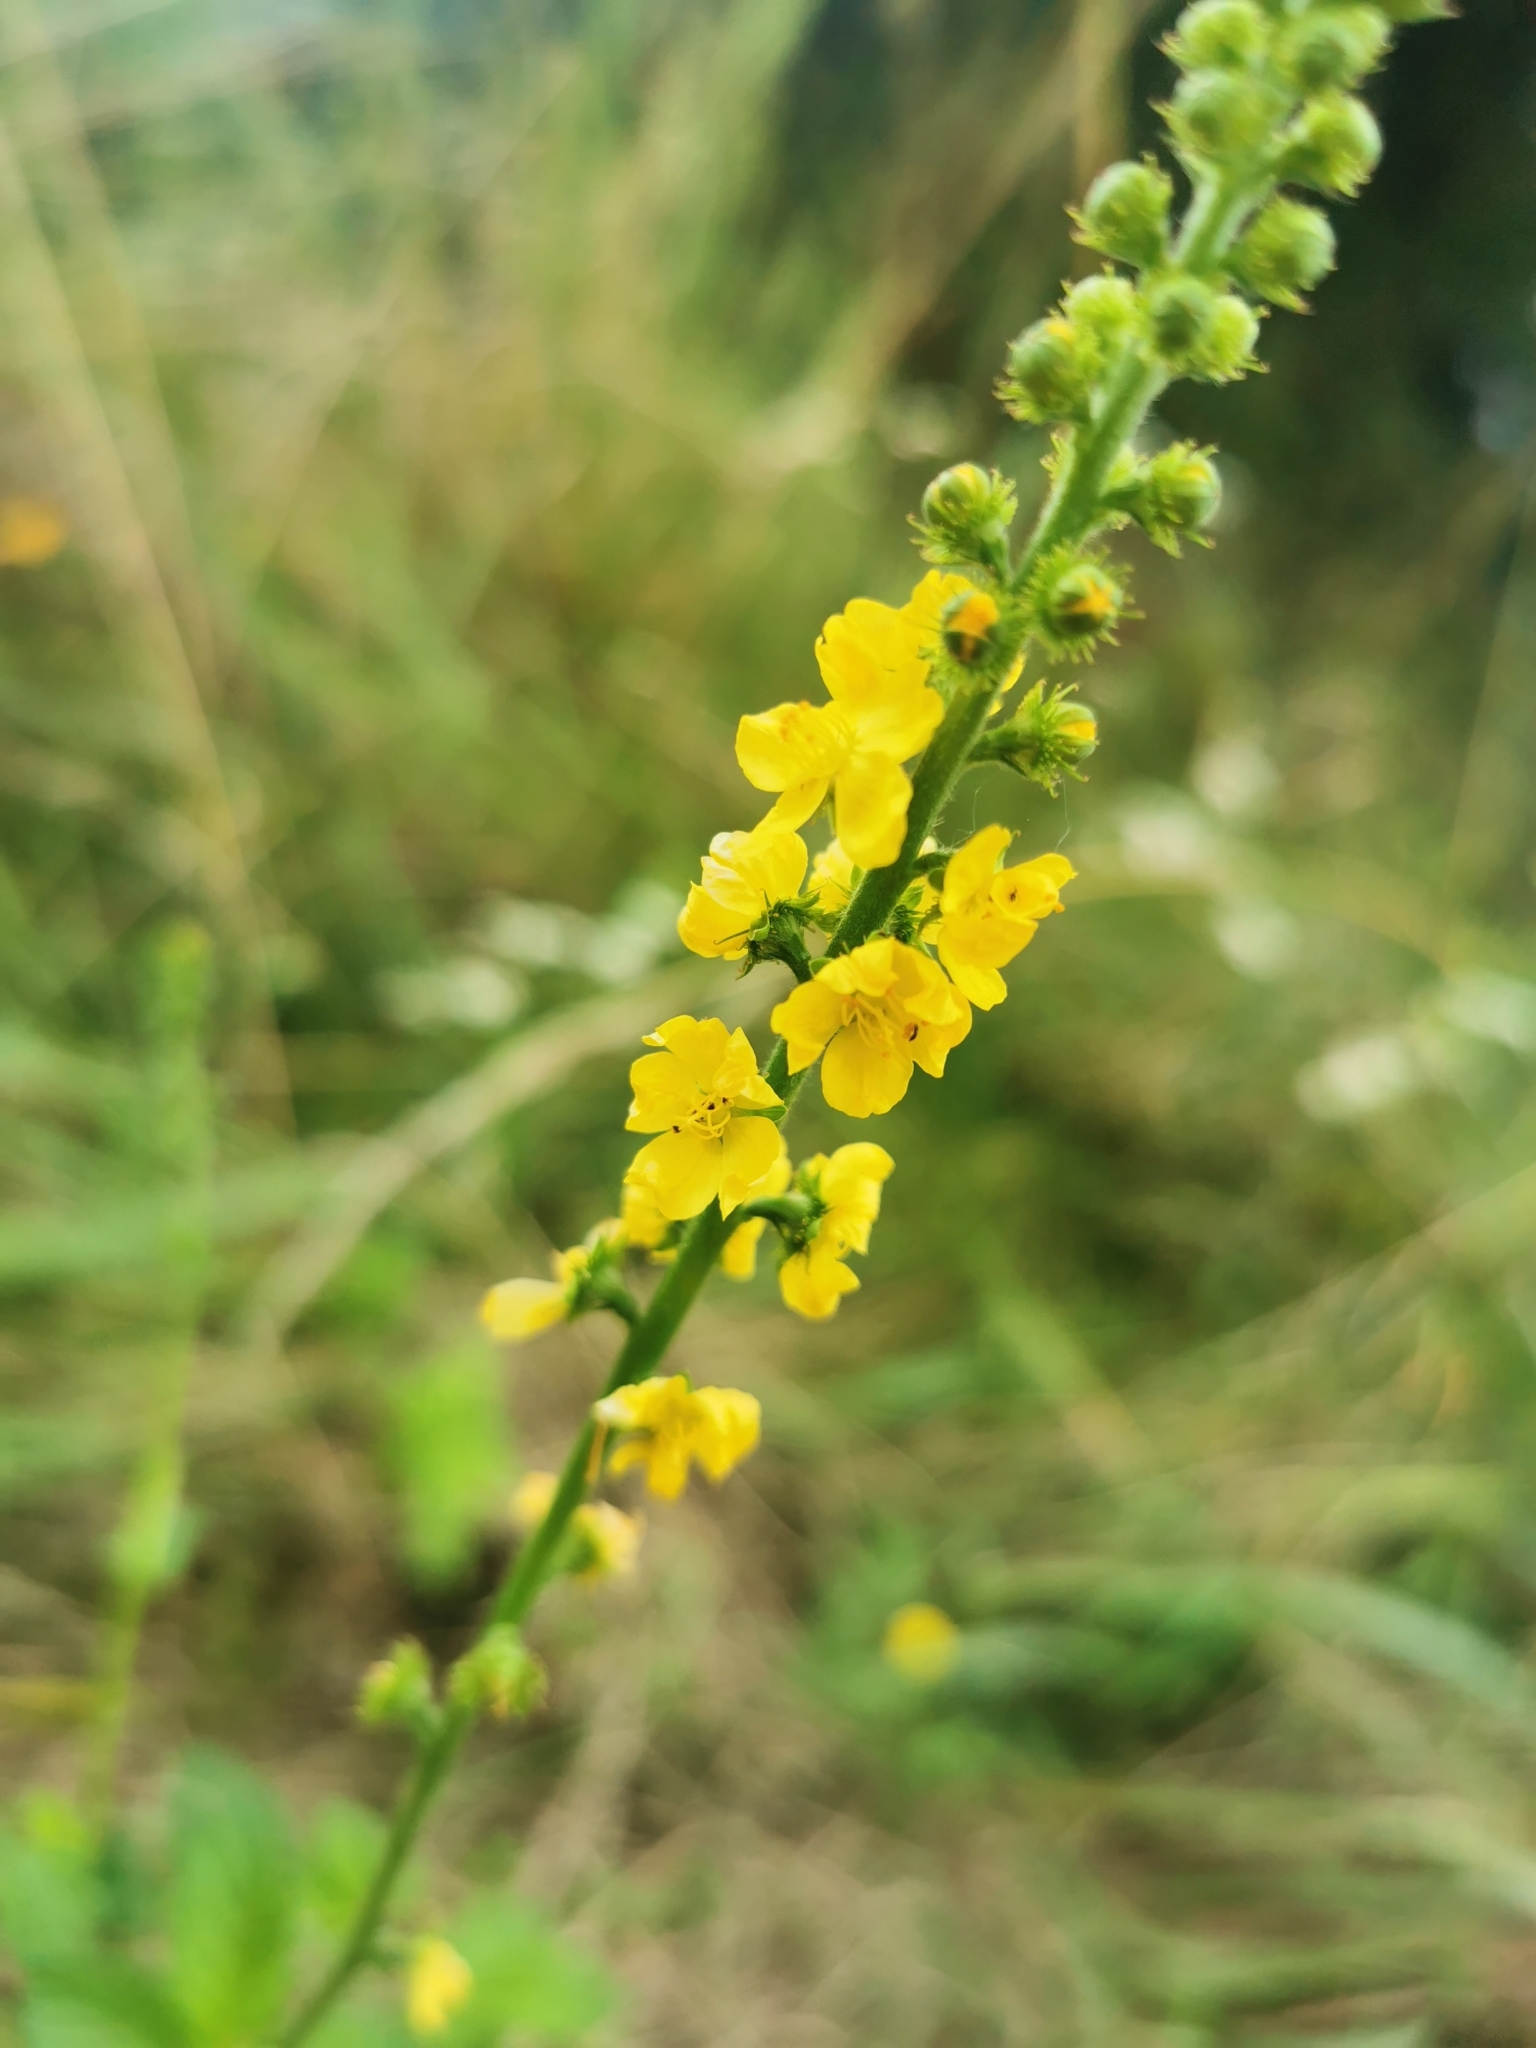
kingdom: Plantae
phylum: Tracheophyta
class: Magnoliopsida
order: Rosales
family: Rosaceae
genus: Agrimonia
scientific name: Agrimonia eupatoria
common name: Agrimony
